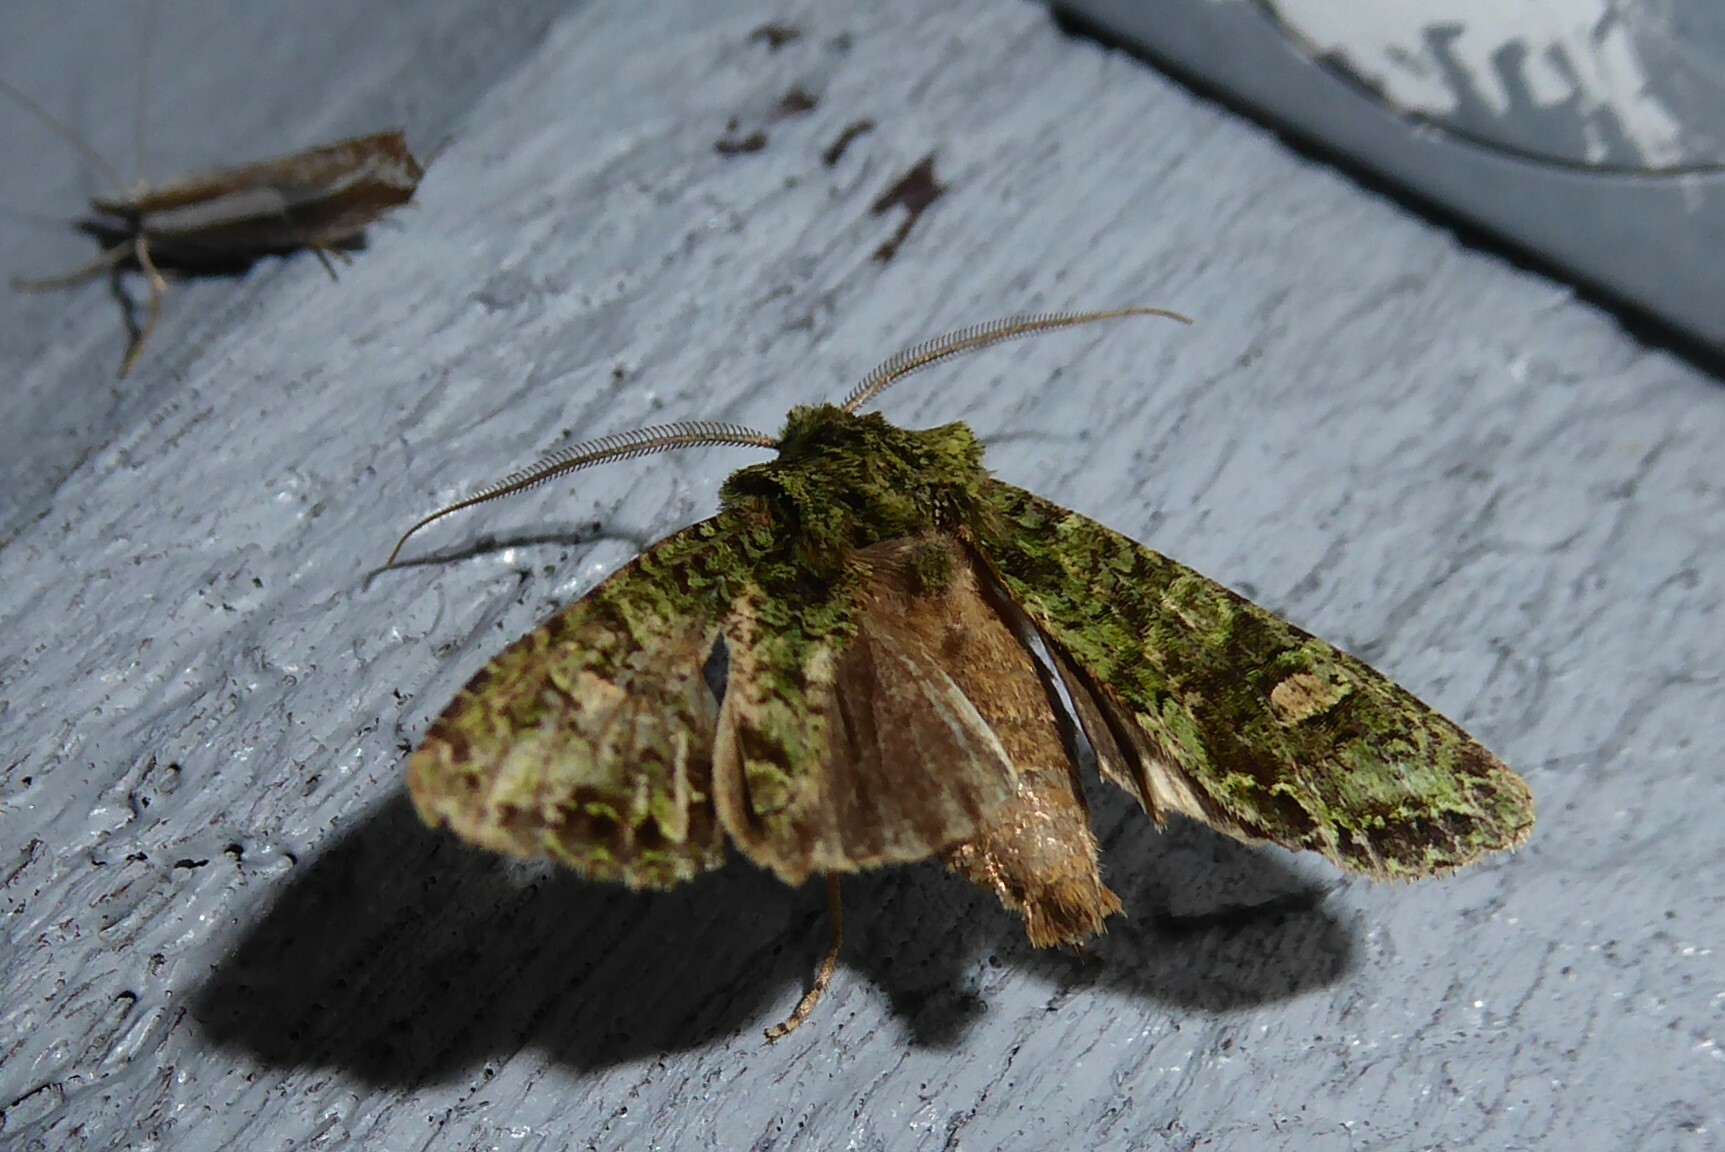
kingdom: Animalia
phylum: Arthropoda
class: Insecta
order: Lepidoptera
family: Noctuidae
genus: Ichneutica
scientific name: Ichneutica
